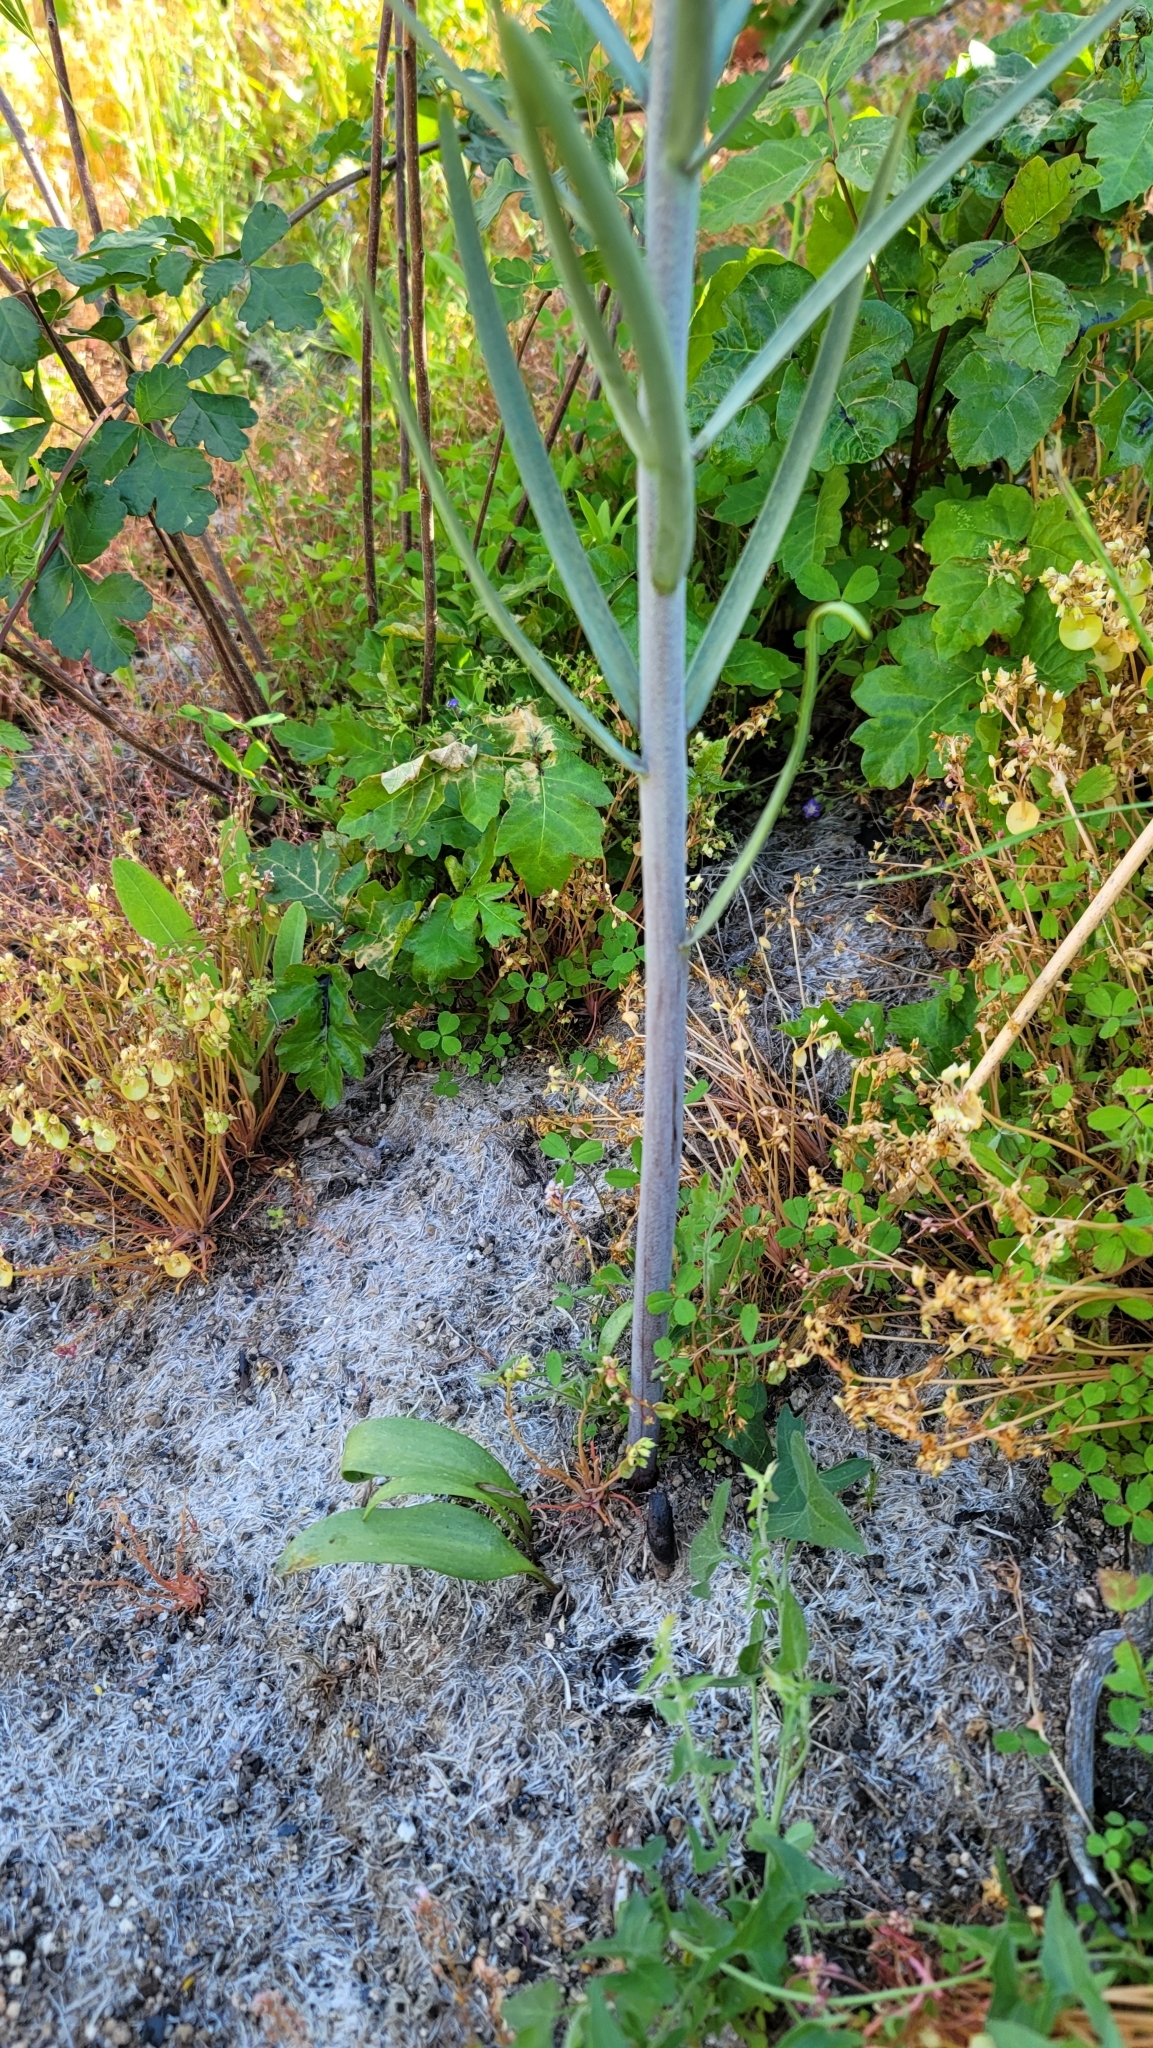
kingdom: Plantae
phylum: Tracheophyta
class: Liliopsida
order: Liliales
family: Liliaceae
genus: Fritillaria
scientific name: Fritillaria micrantha
